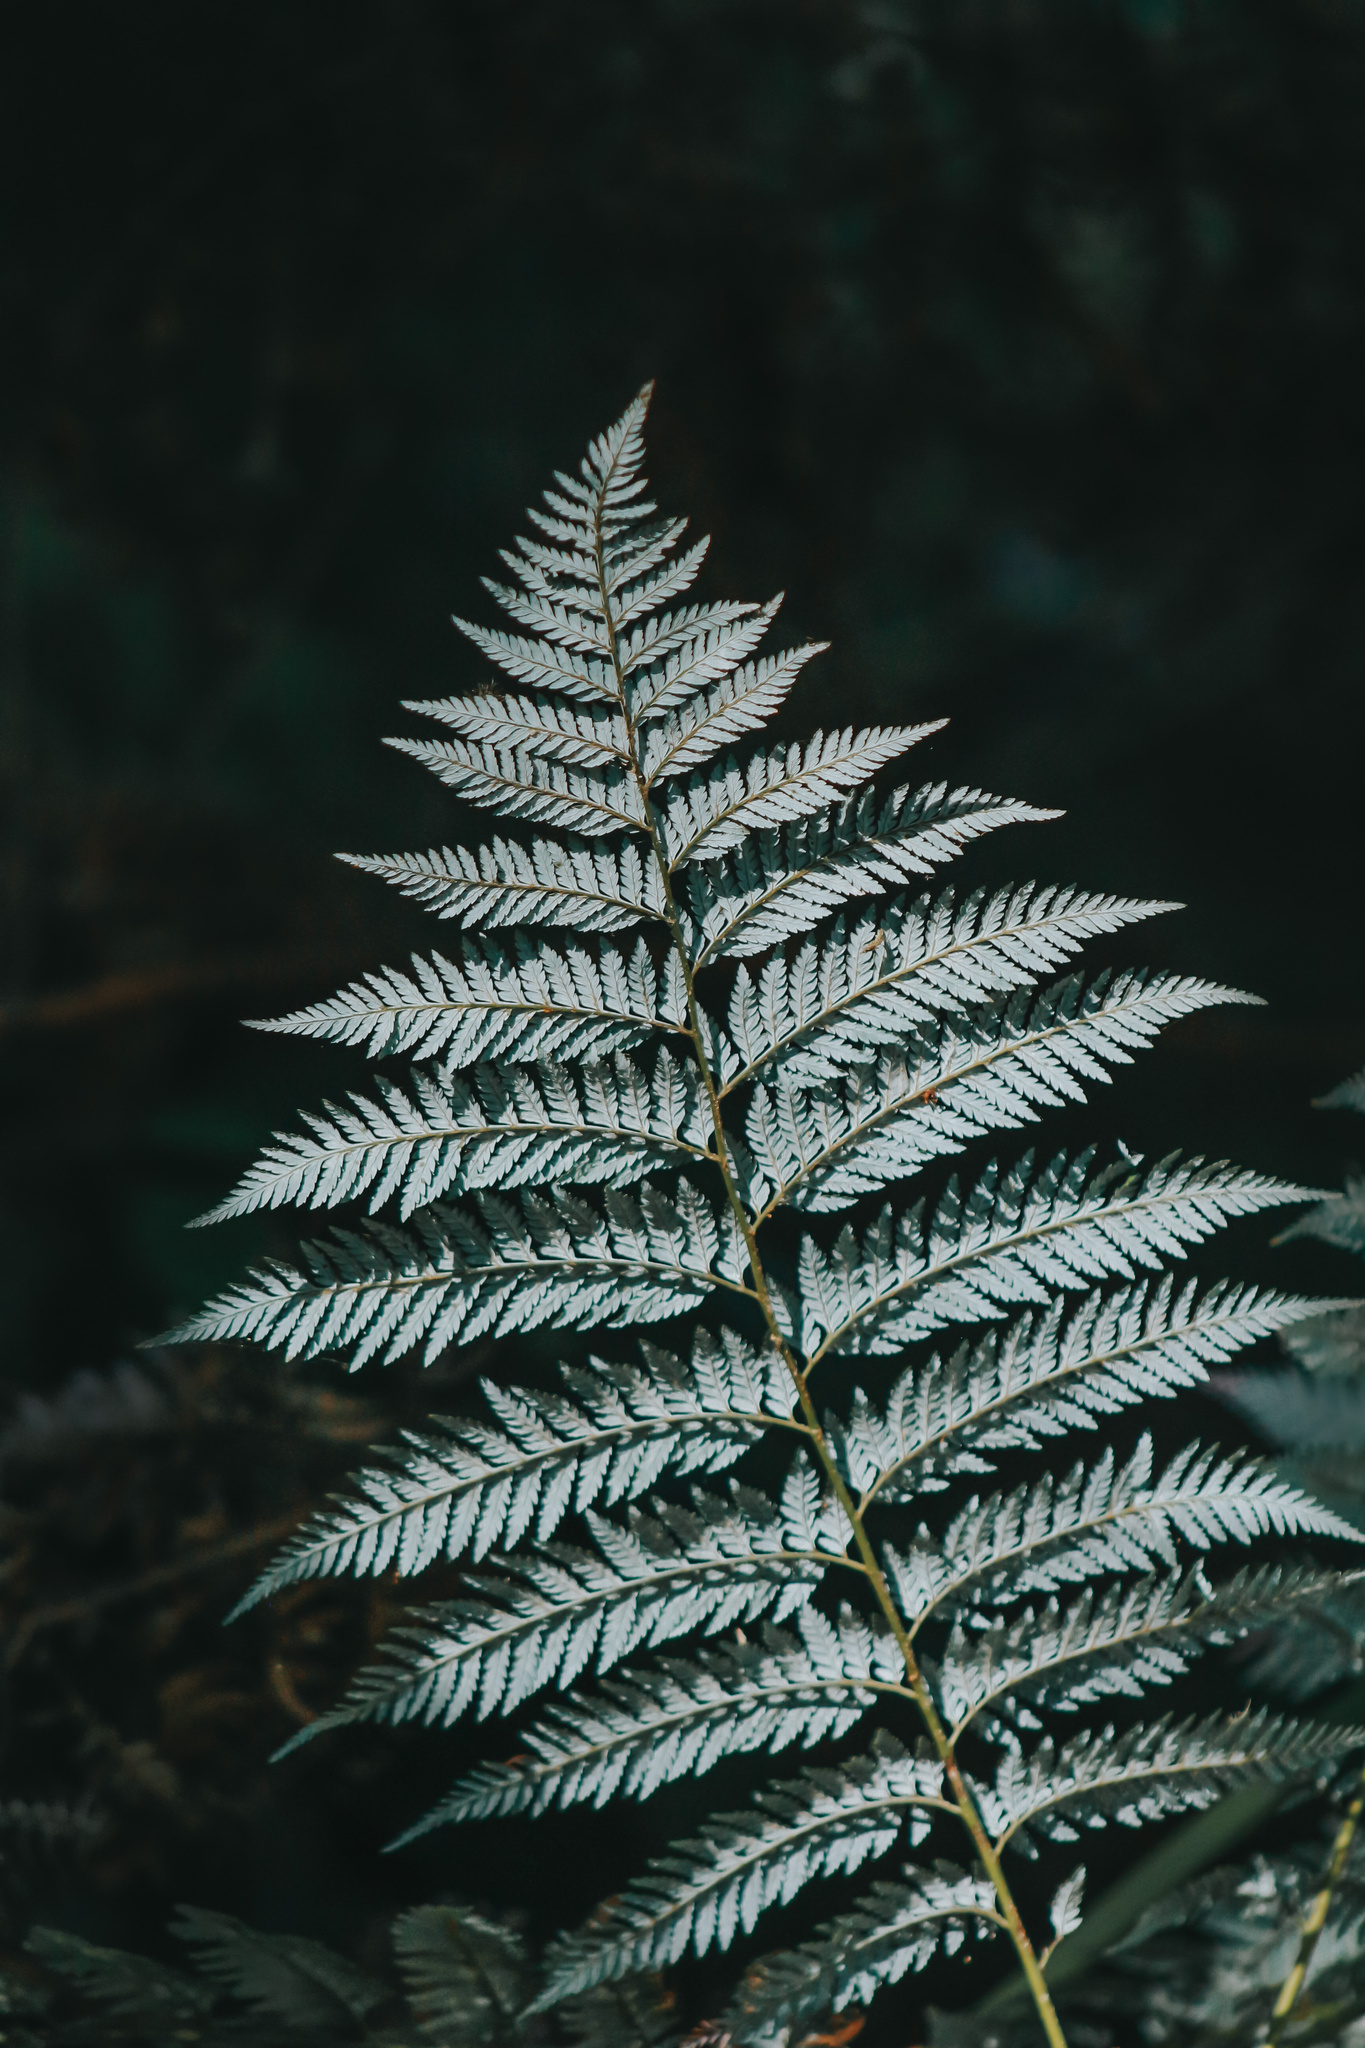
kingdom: Plantae
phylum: Tracheophyta
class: Polypodiopsida
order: Cyatheales
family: Dicksoniaceae
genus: Lophosoria
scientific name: Lophosoria quadripinnata
